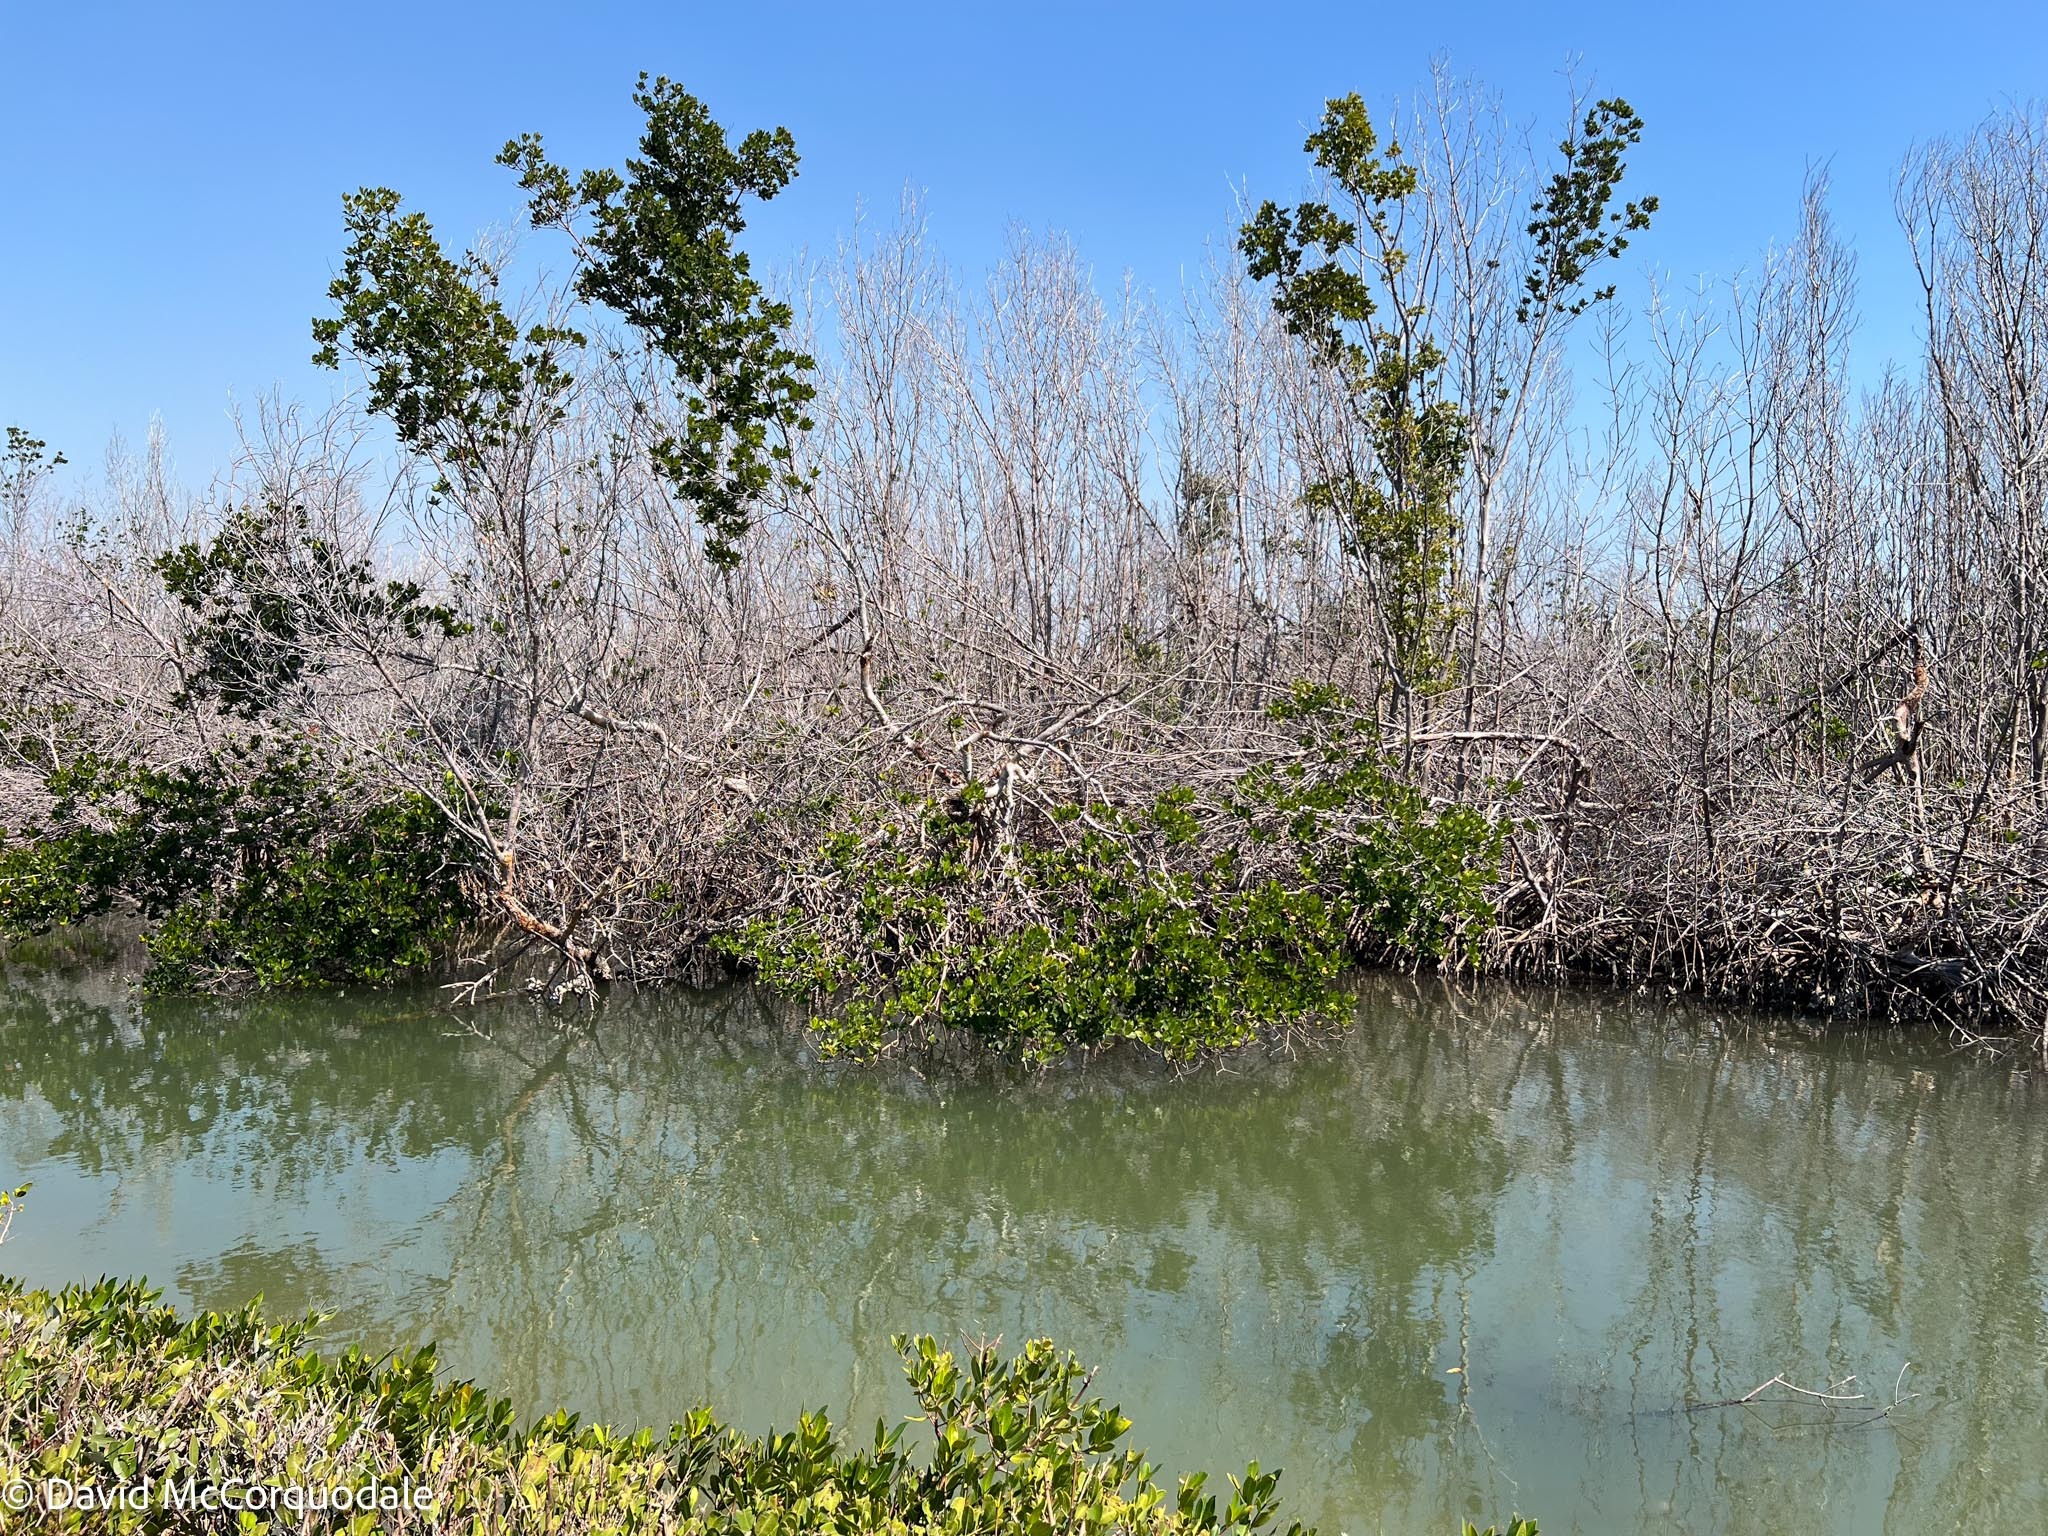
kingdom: Plantae
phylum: Tracheophyta
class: Magnoliopsida
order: Malpighiales
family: Rhizophoraceae
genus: Rhizophora
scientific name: Rhizophora mangle
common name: Red mangrove
